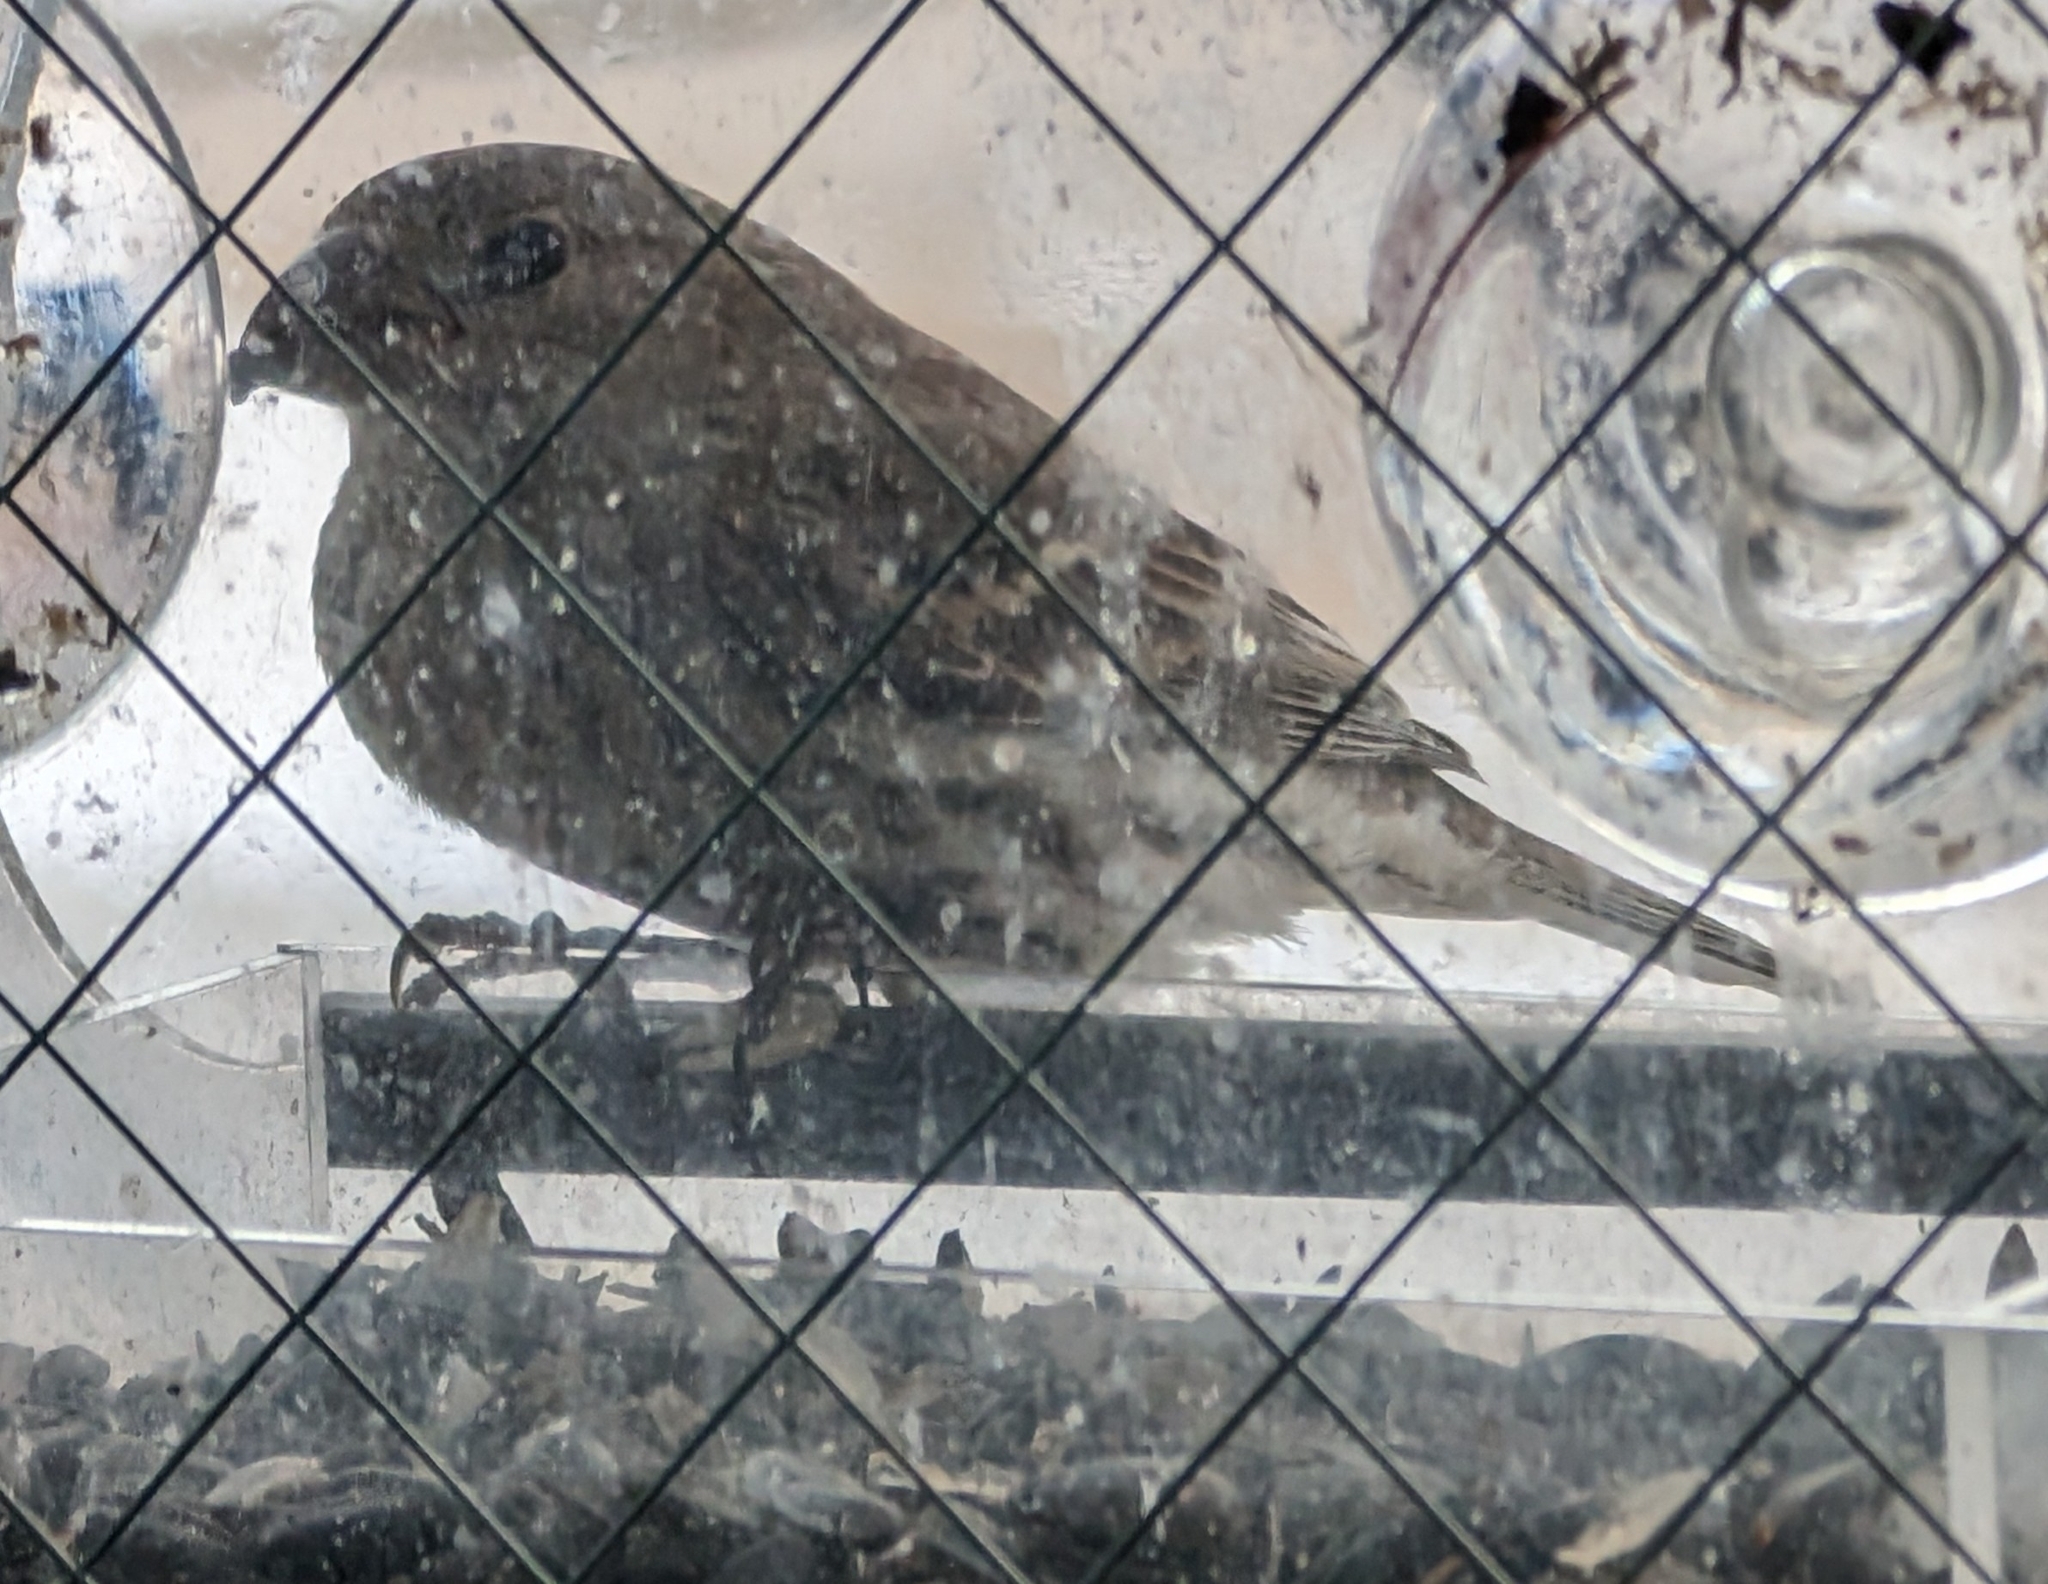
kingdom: Animalia
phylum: Chordata
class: Aves
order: Passeriformes
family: Fringillidae
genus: Haemorhous
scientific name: Haemorhous mexicanus
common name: House finch
